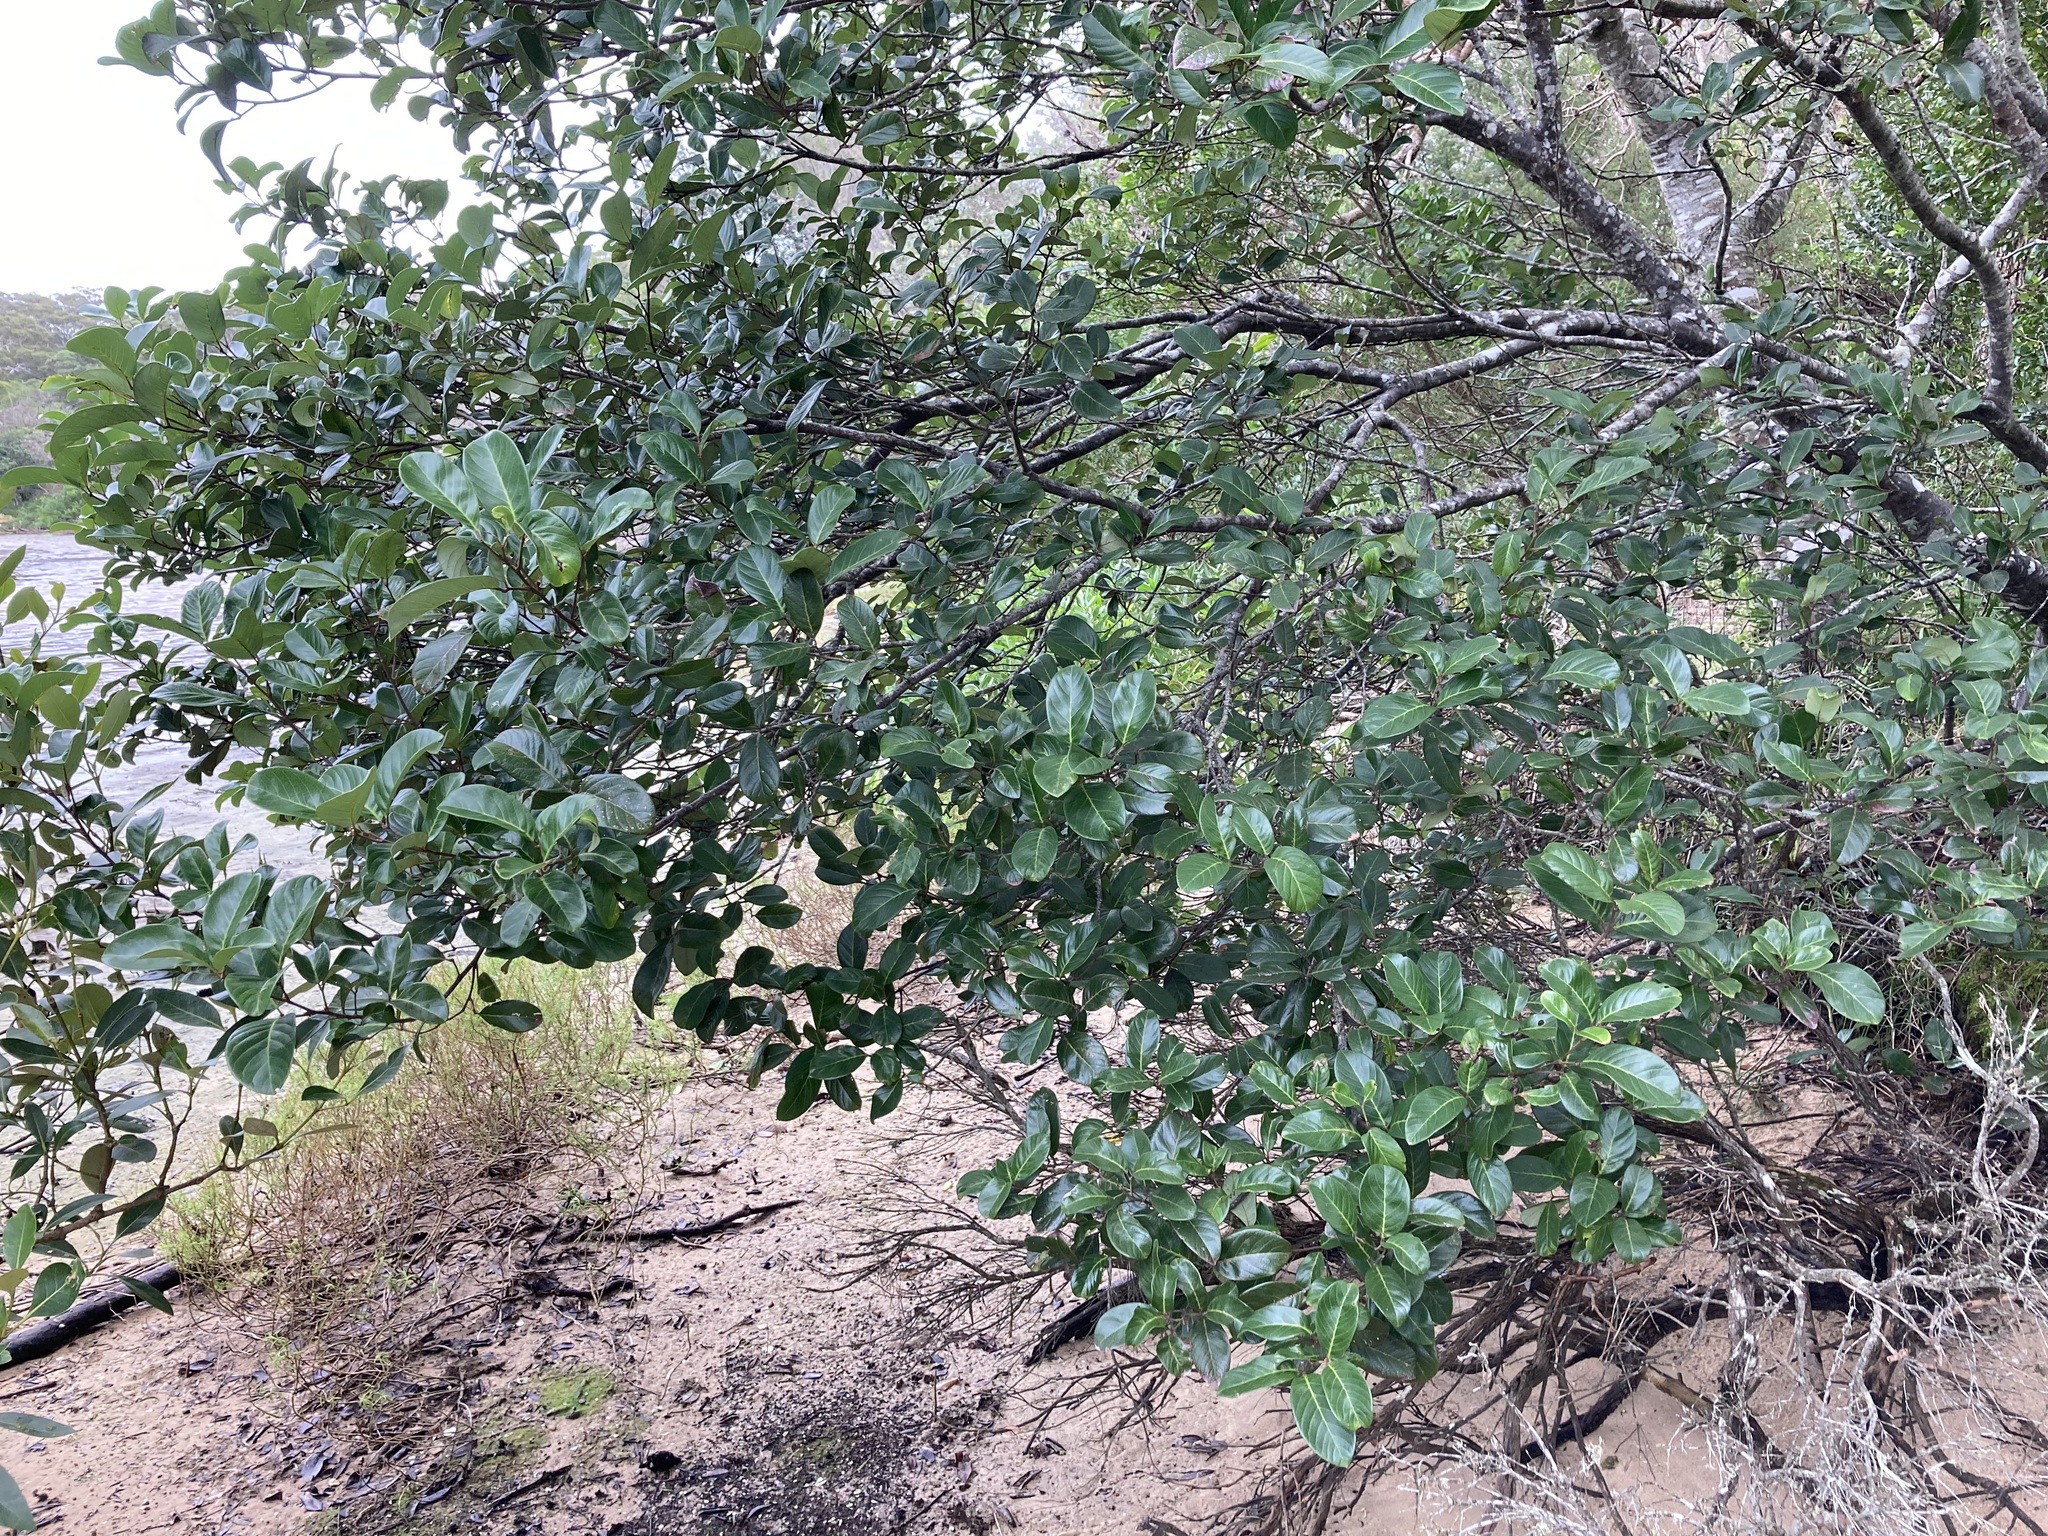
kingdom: Plantae
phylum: Tracheophyta
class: Magnoliopsida
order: Sapindales
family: Sapindaceae
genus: Alectryon
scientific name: Alectryon coriaceus
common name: Beach alectryon
